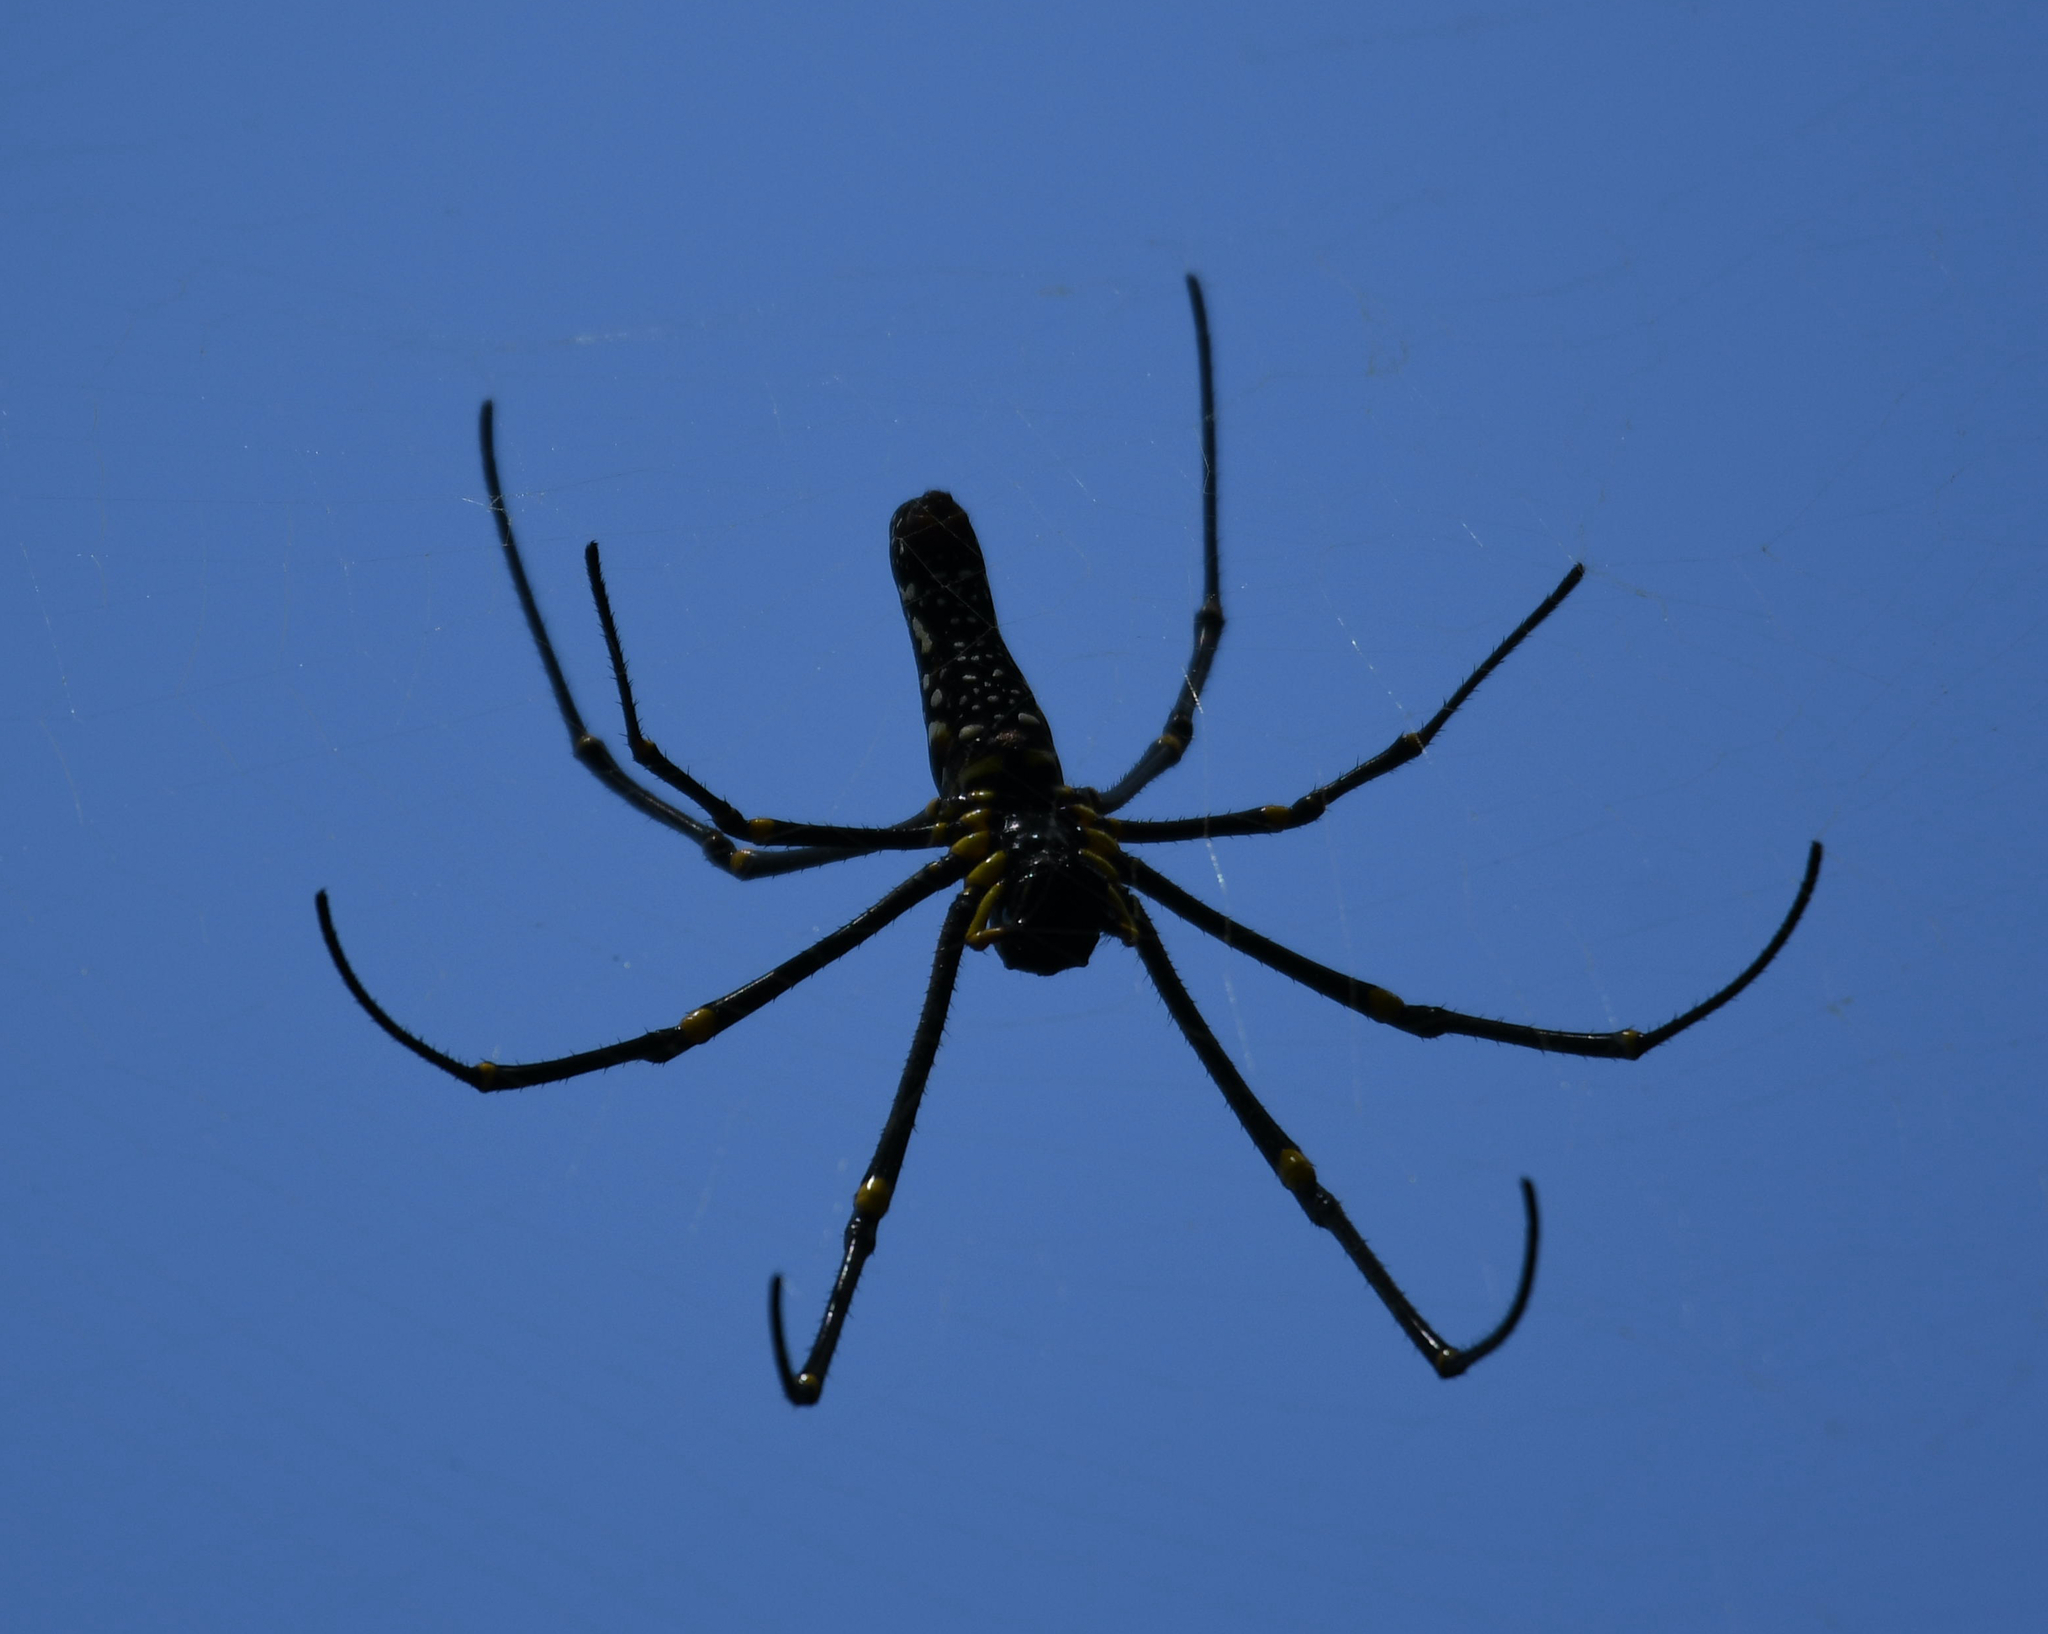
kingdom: Animalia
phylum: Arthropoda
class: Arachnida
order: Araneae
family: Araneidae
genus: Nephila
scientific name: Nephila pilipes
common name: Giant golden orb weaver
